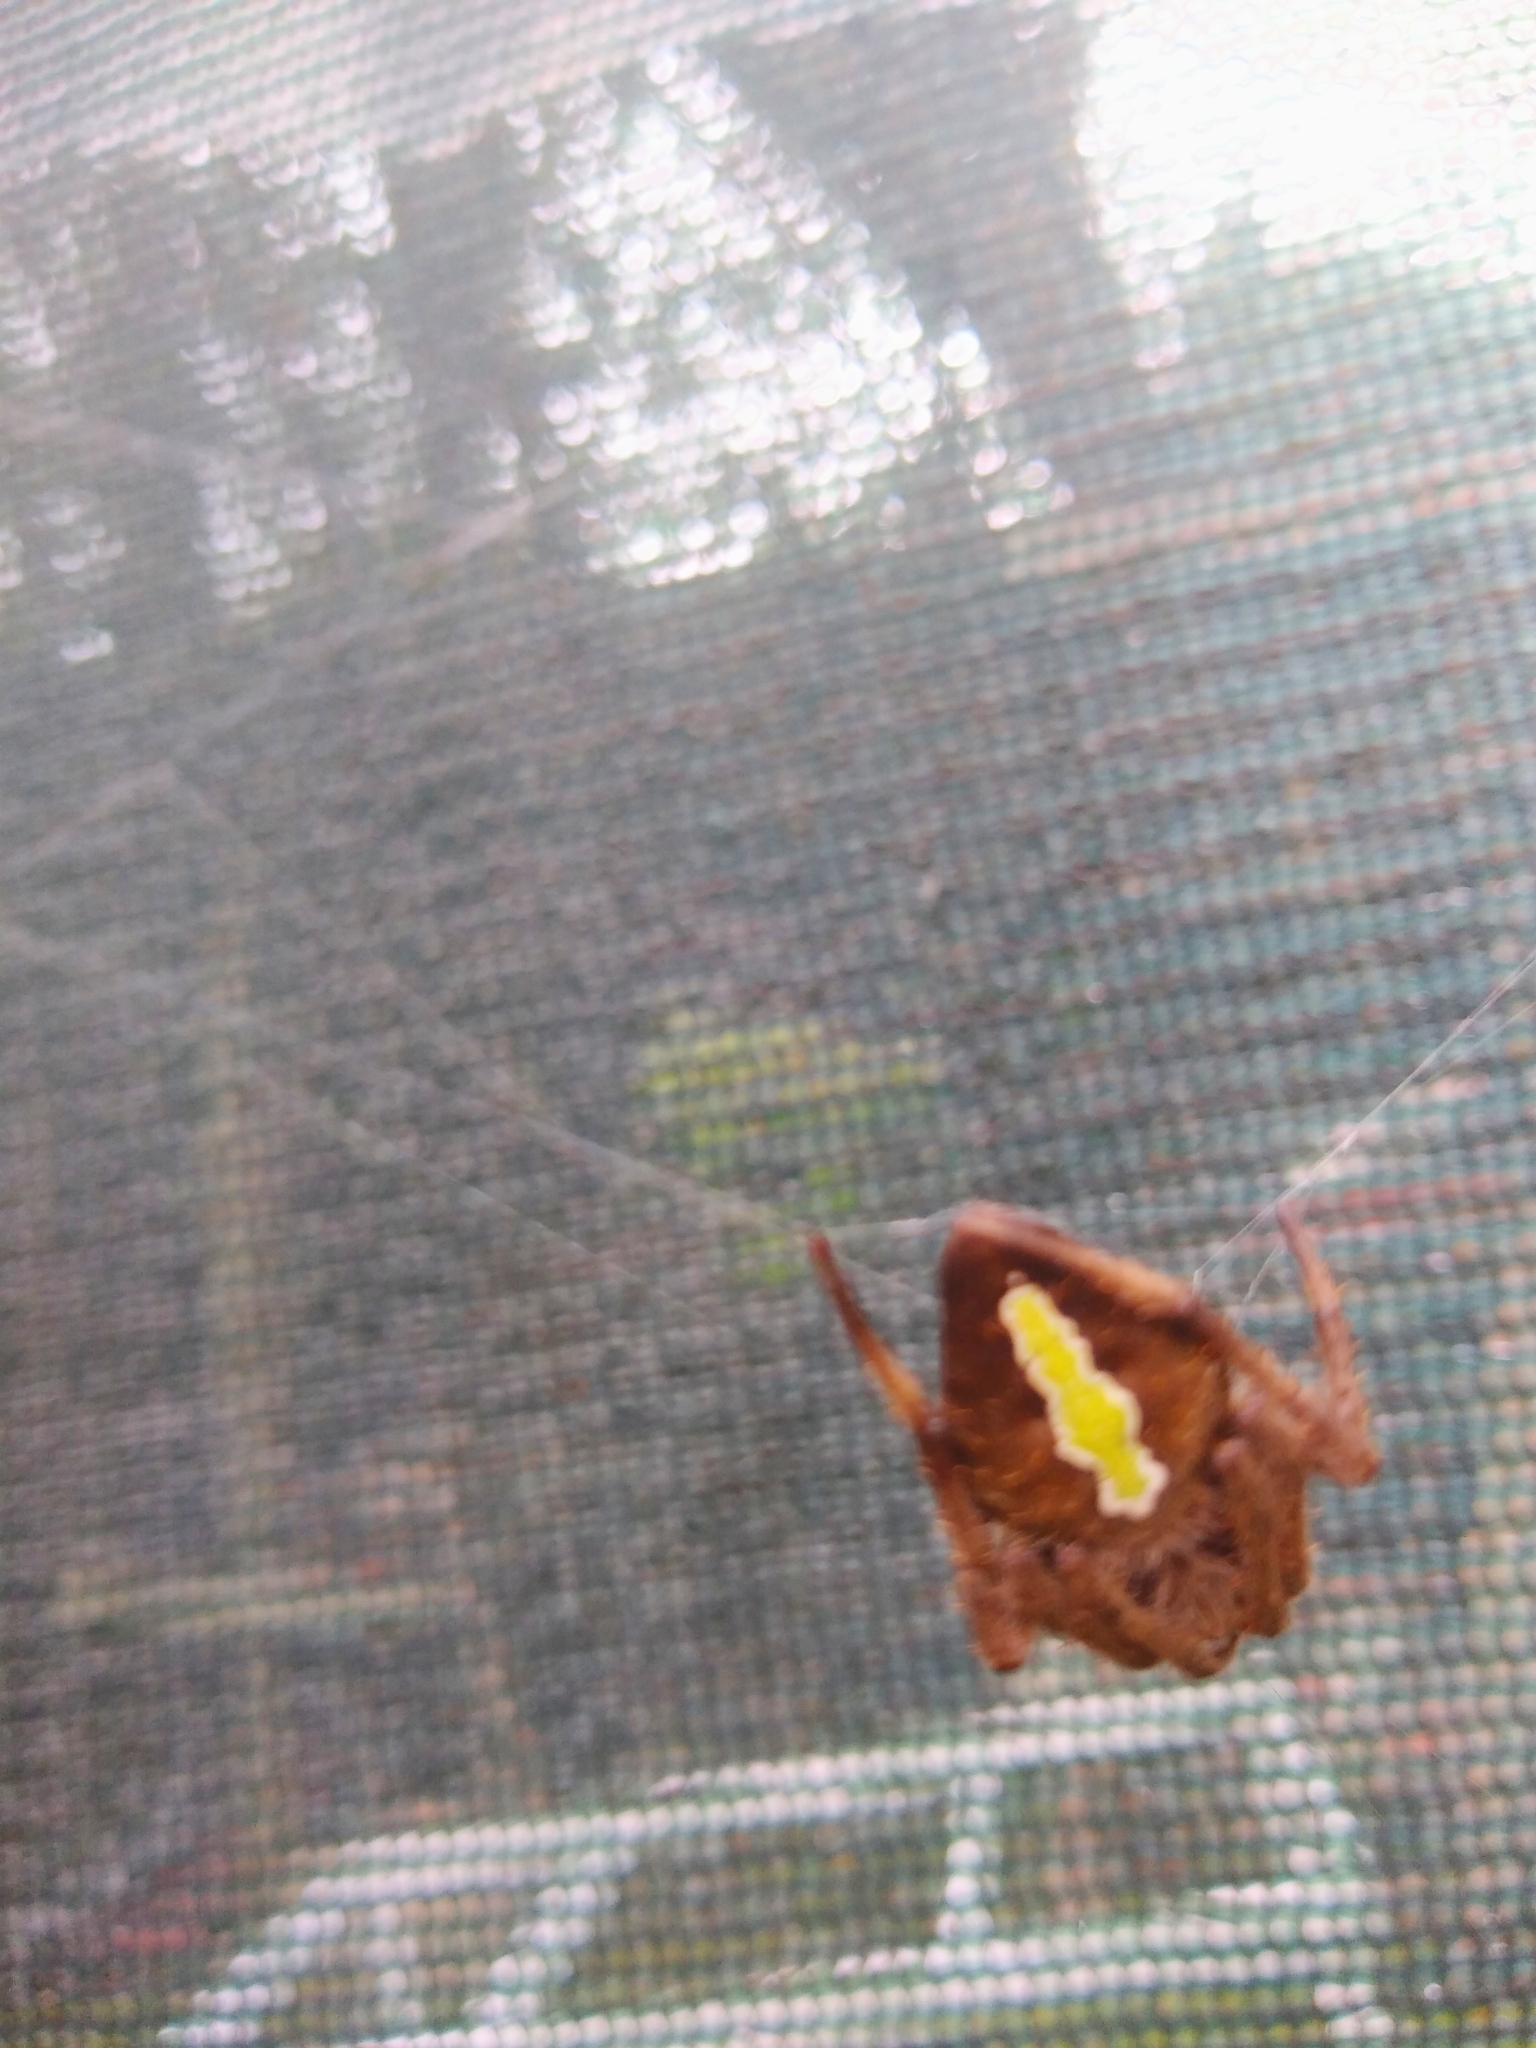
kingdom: Animalia
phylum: Arthropoda
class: Arachnida
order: Araneae
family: Araneidae
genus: Eriophora
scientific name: Eriophora ravilla
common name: Orb weavers
